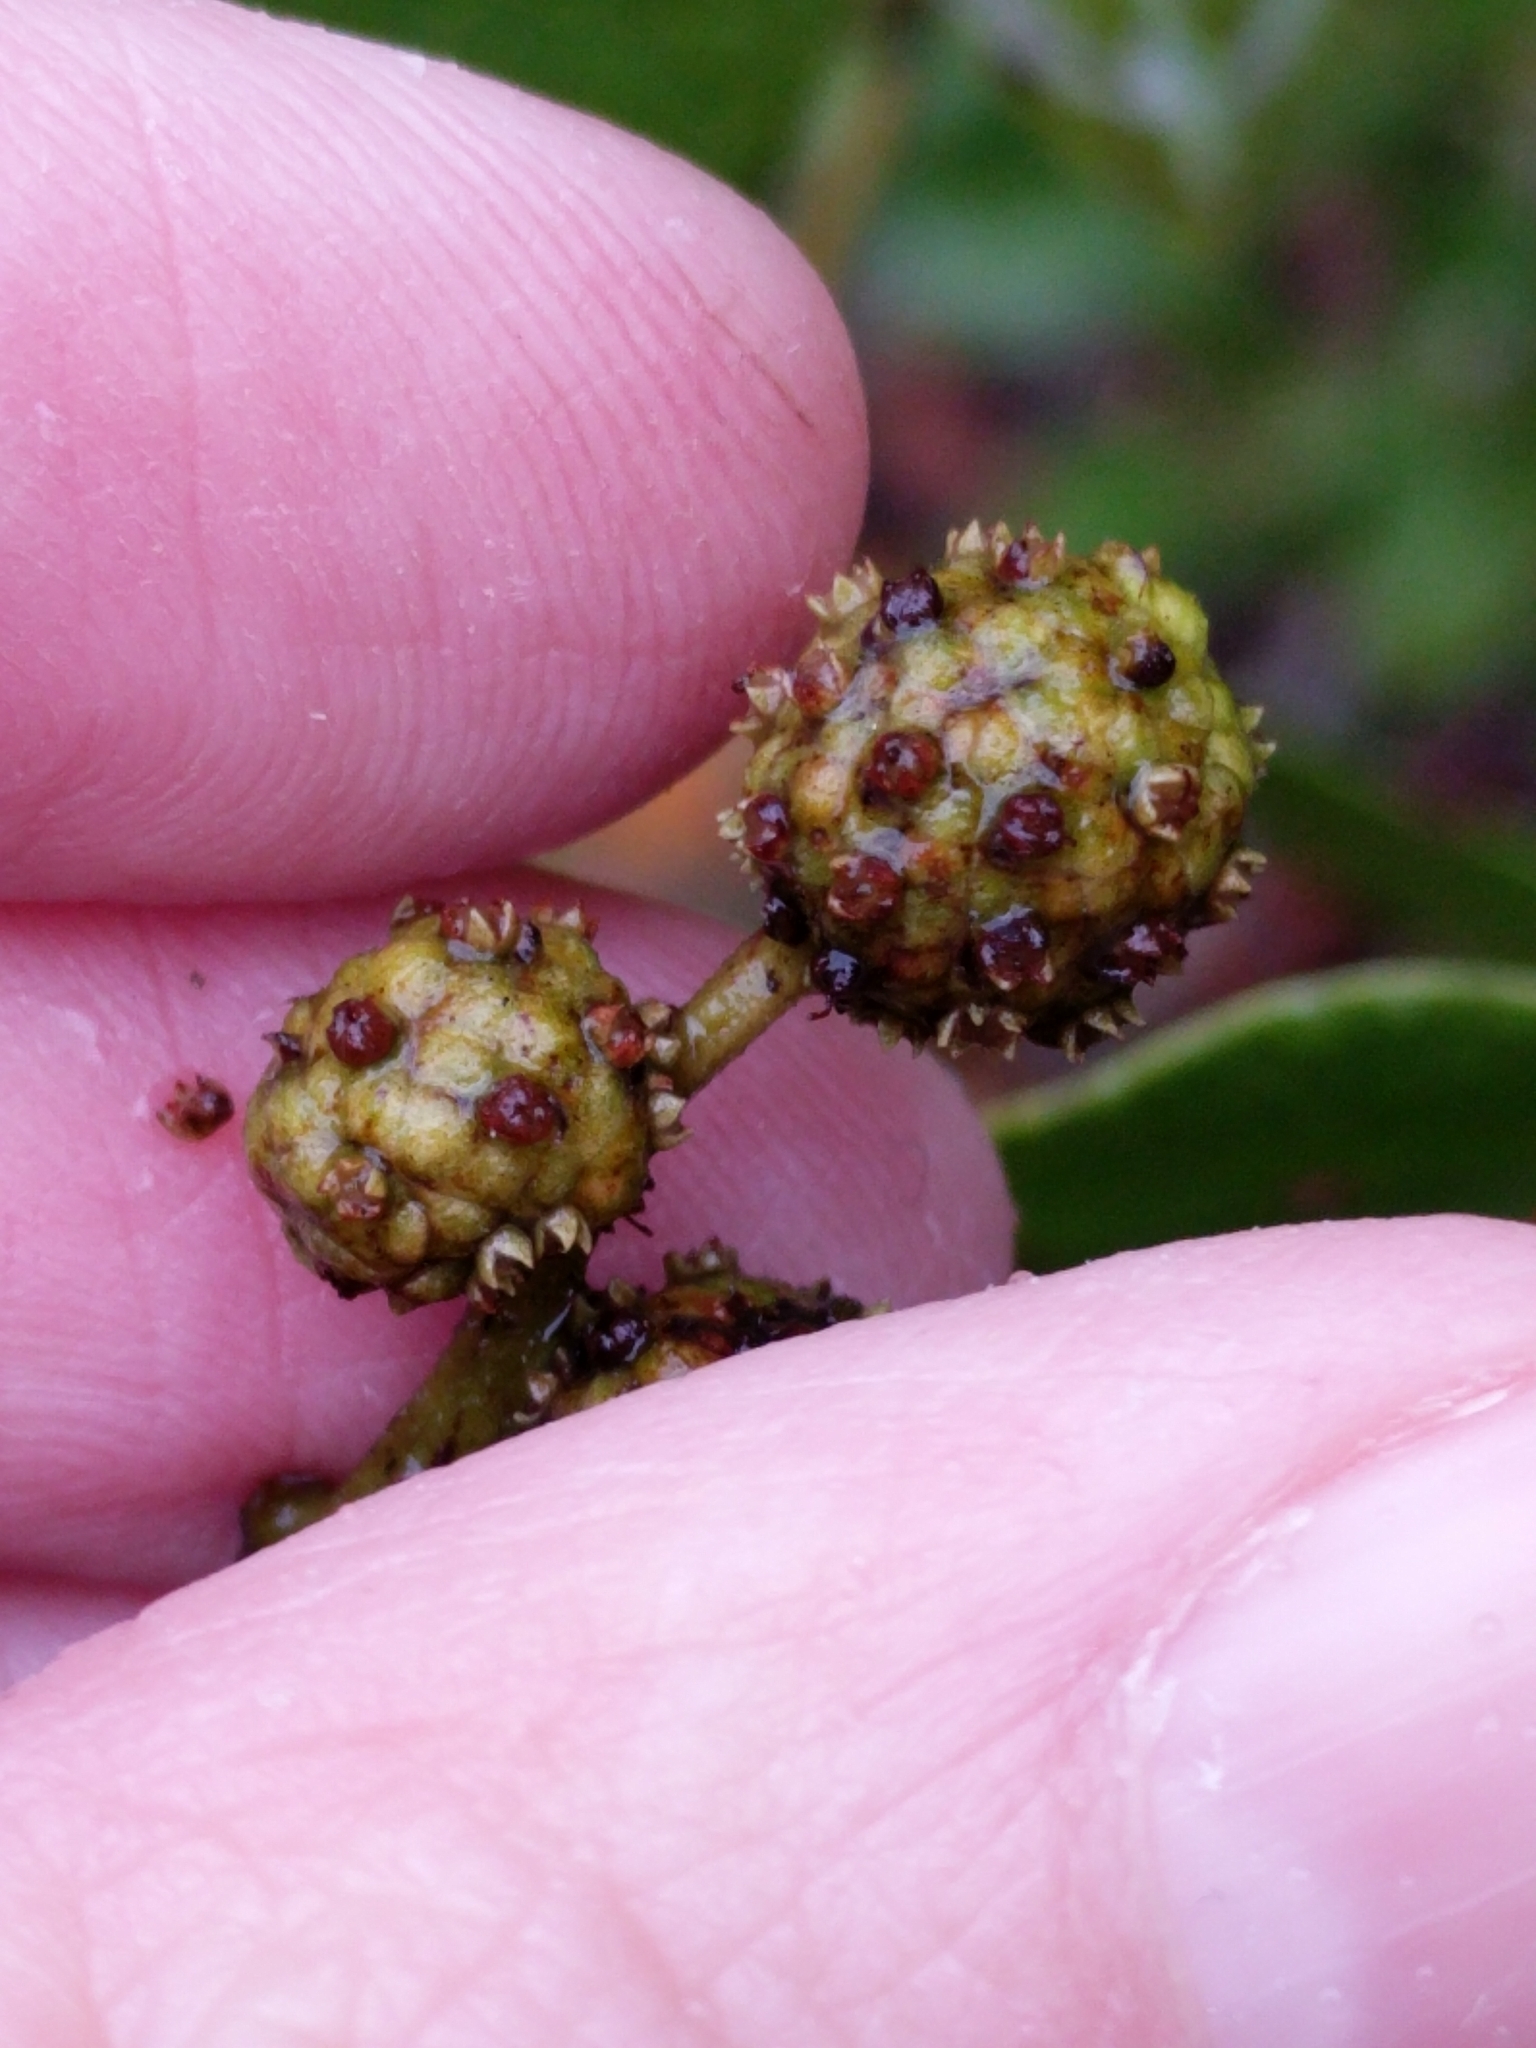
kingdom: Plantae
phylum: Tracheophyta
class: Magnoliopsida
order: Myrtales
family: Combretaceae
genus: Conocarpus
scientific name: Conocarpus erectus
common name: Button mangrove
